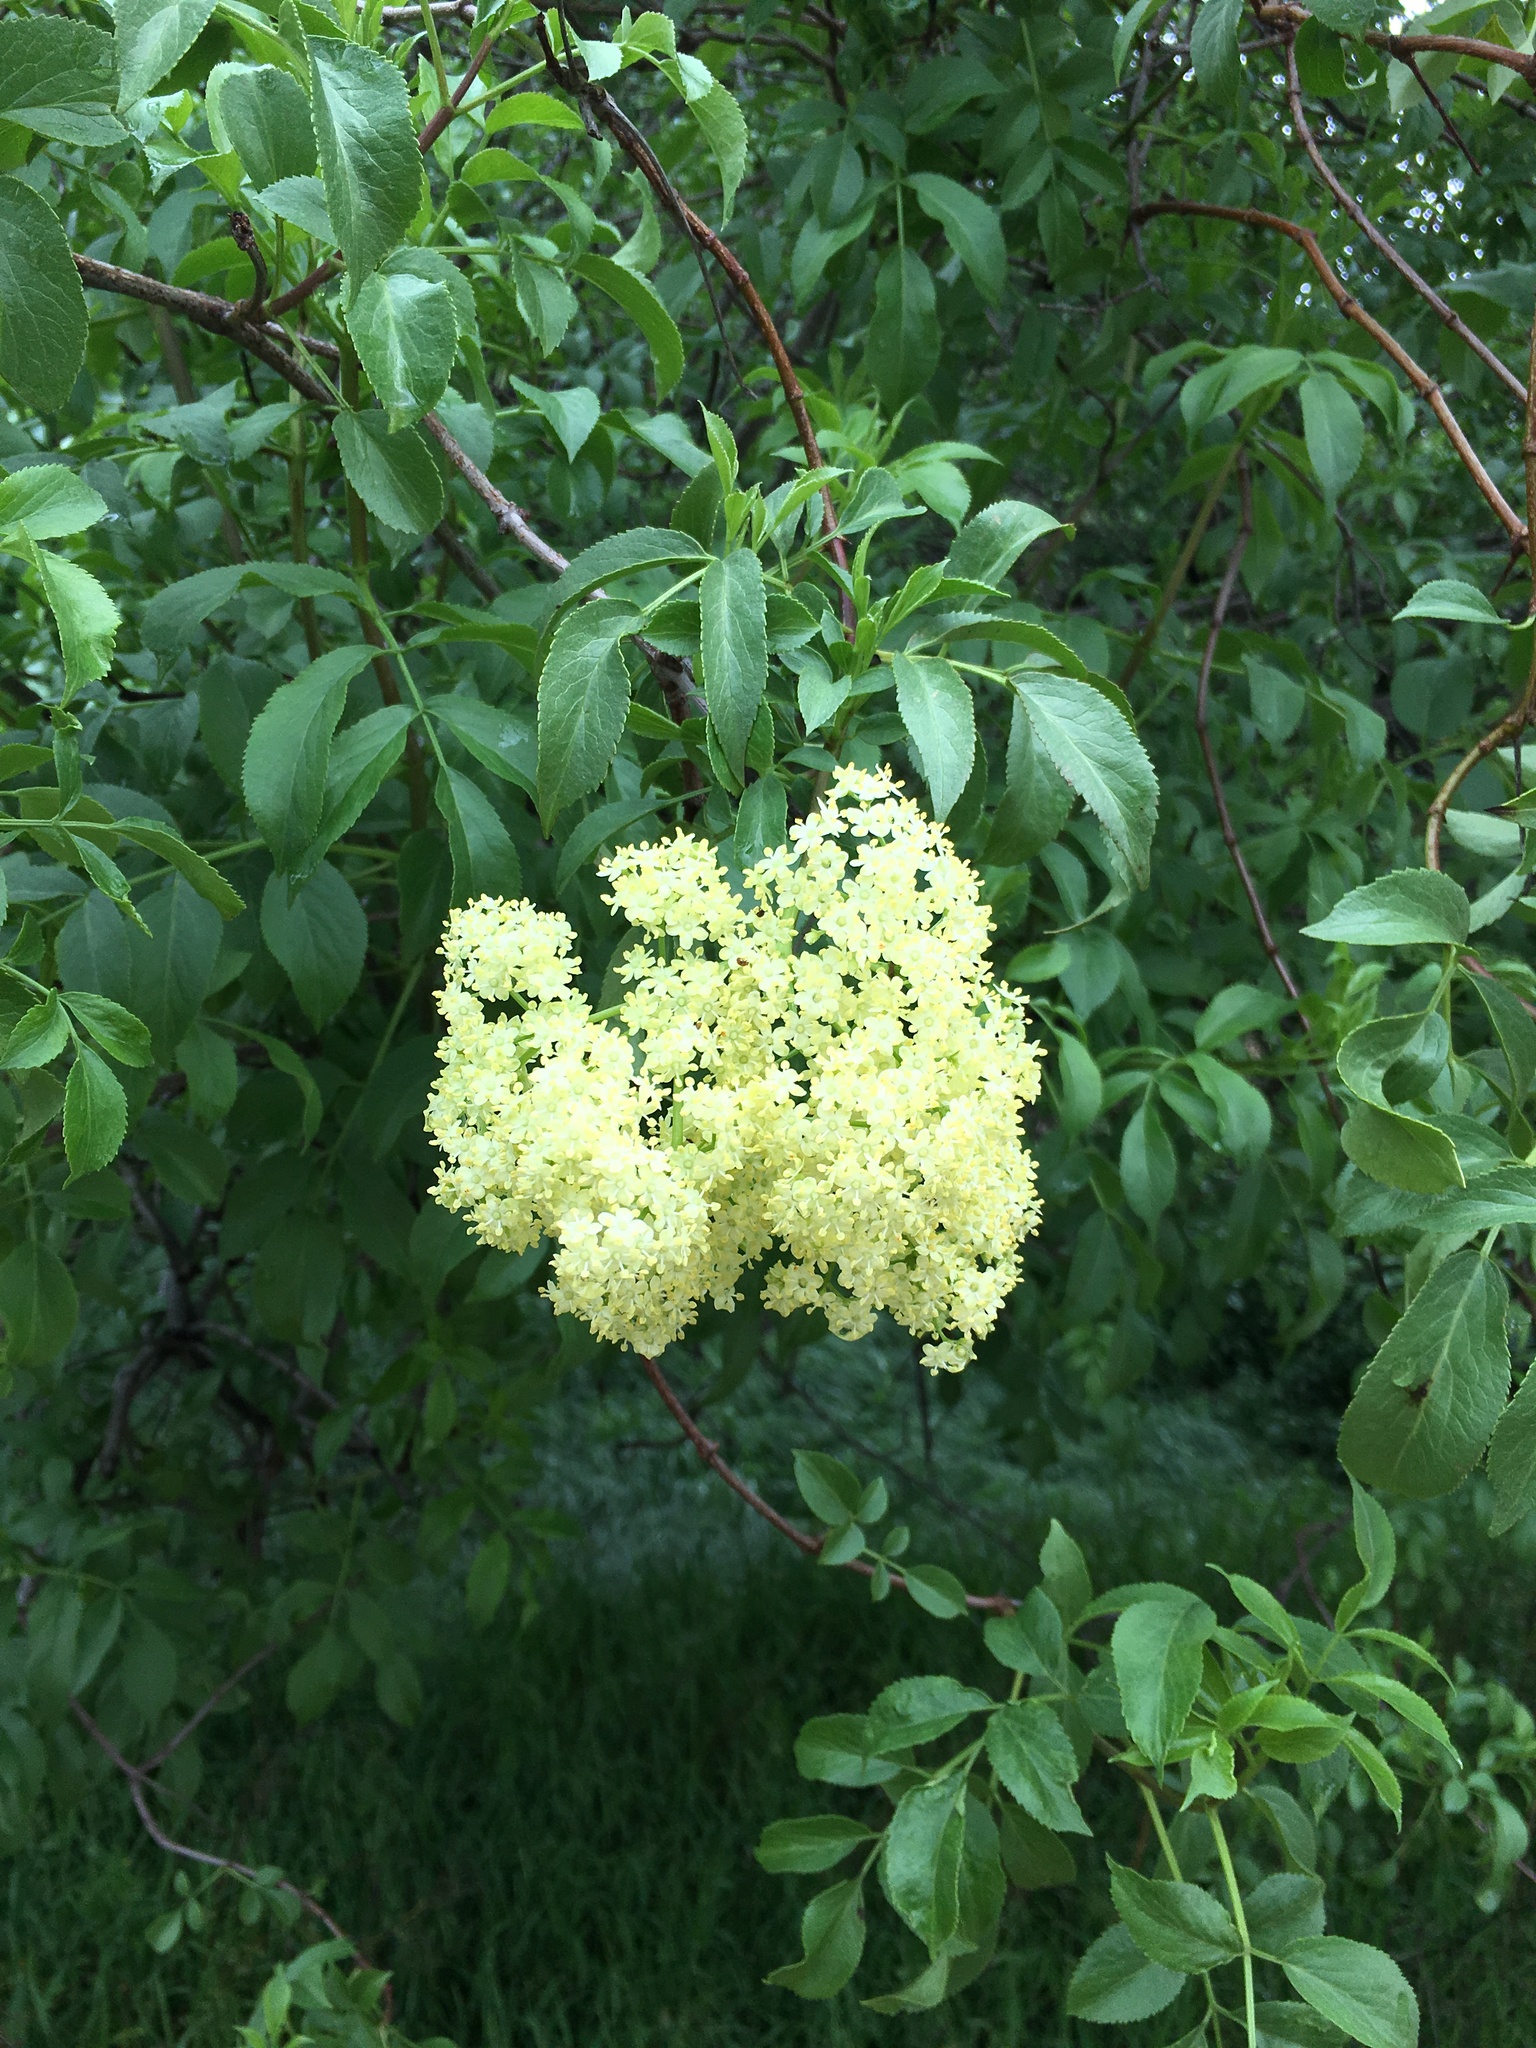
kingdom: Plantae
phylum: Tracheophyta
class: Magnoliopsida
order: Dipsacales
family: Viburnaceae
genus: Sambucus
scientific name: Sambucus cerulea
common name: Blue elder
